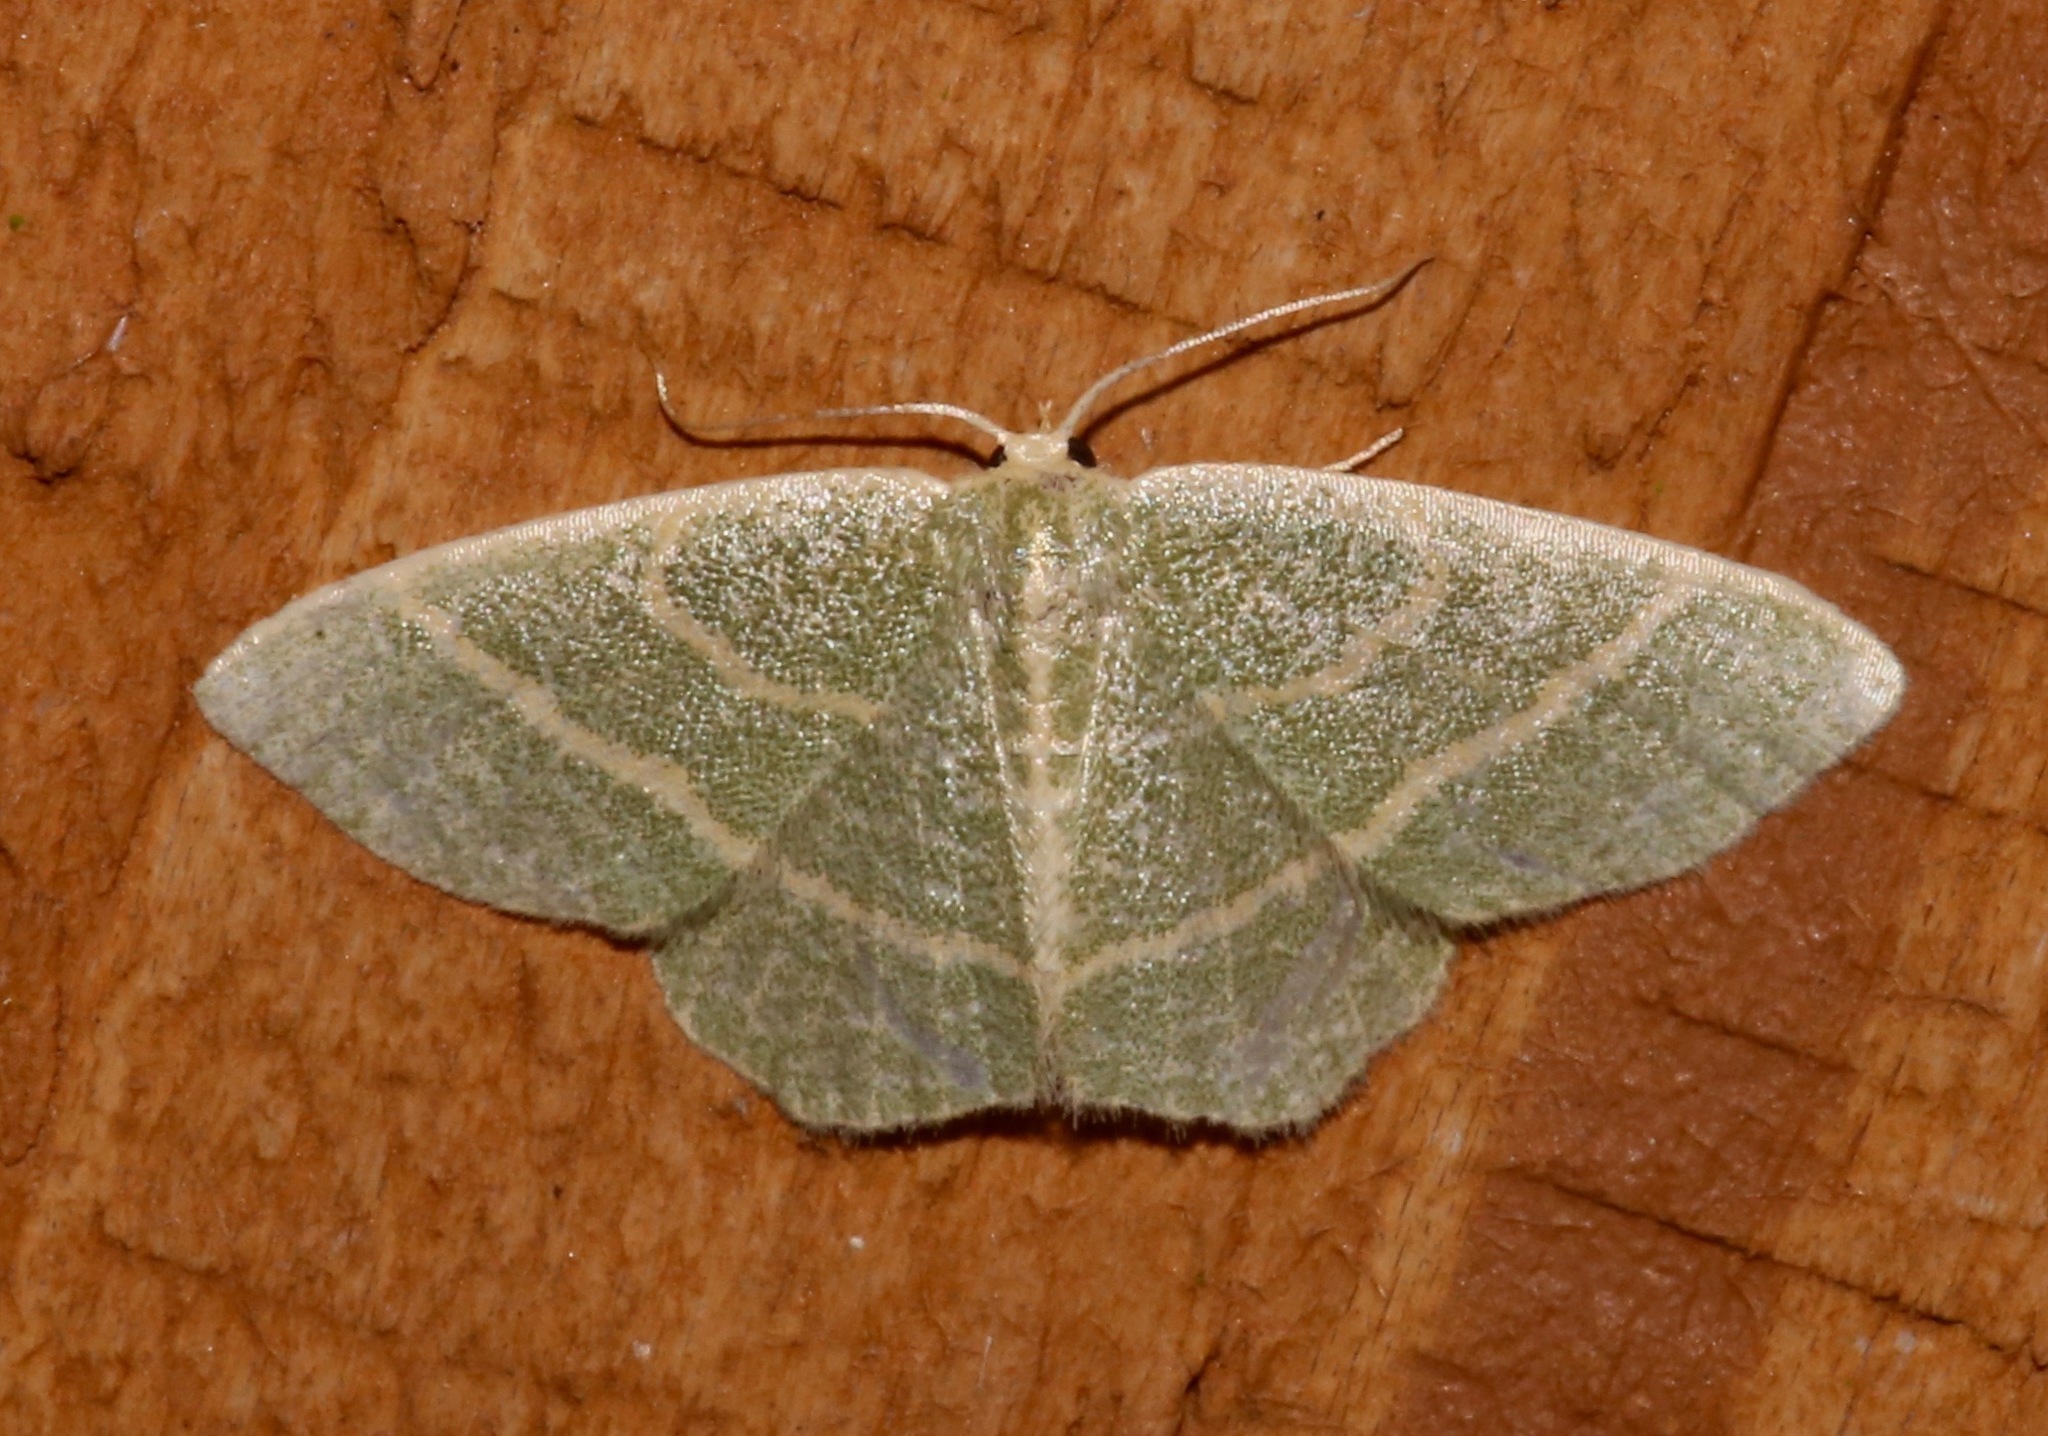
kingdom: Animalia
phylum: Arthropoda
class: Insecta
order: Lepidoptera
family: Geometridae
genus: Chlorochlamys
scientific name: Chlorochlamys chloroleucaria
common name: Blackberry looper
